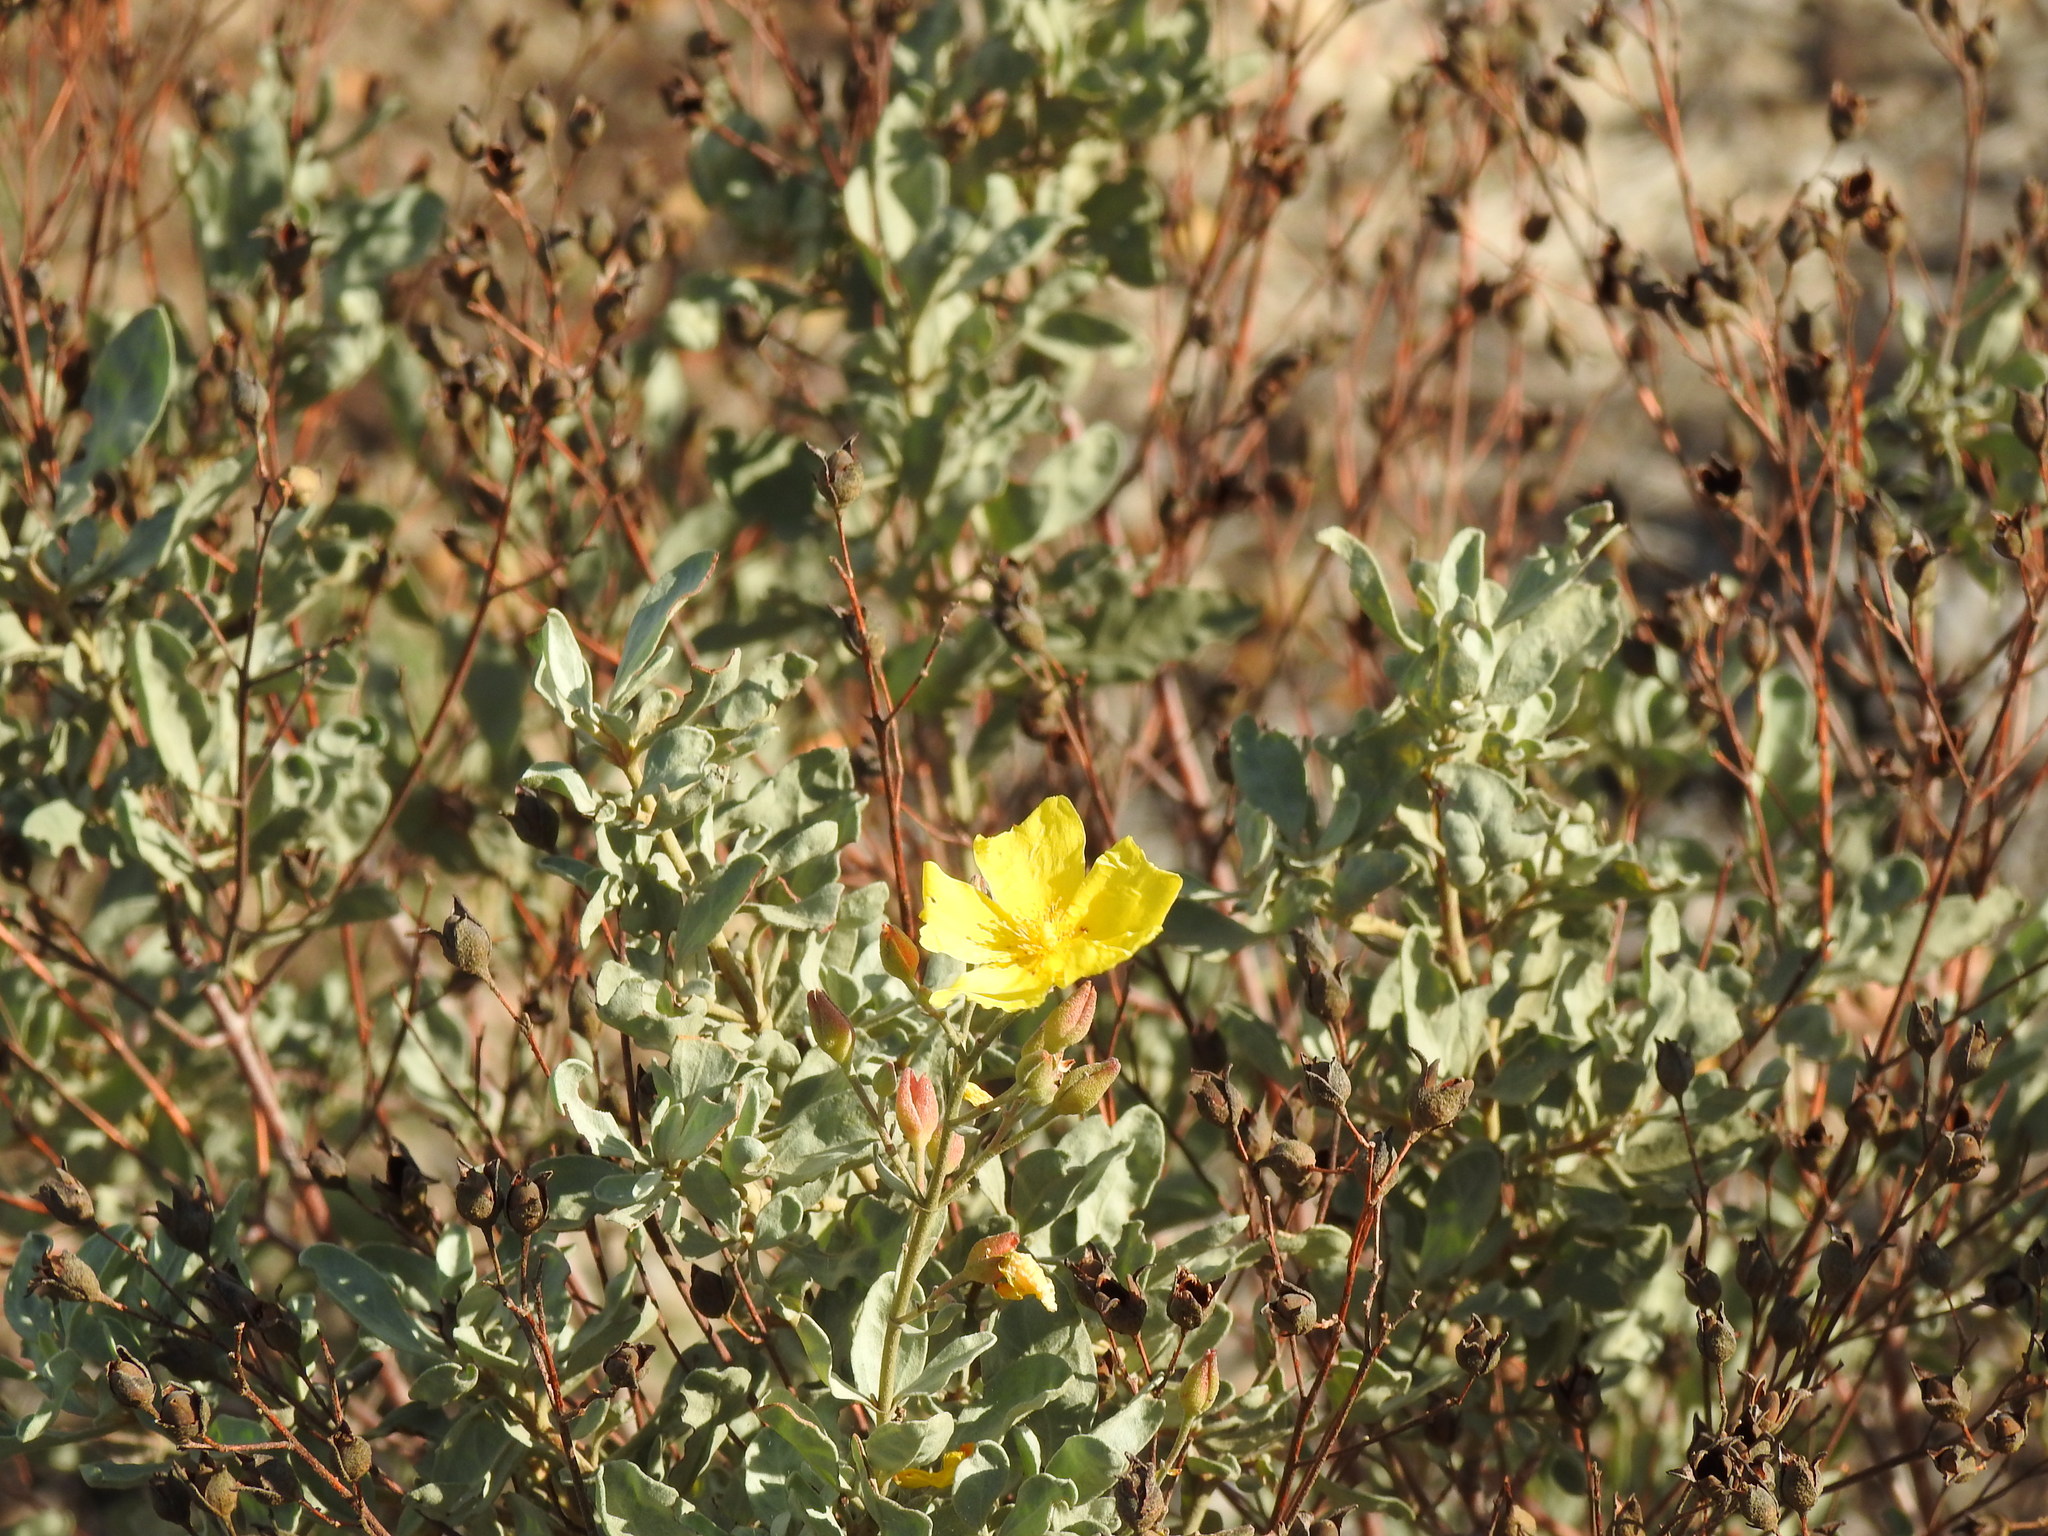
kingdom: Plantae
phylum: Tracheophyta
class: Magnoliopsida
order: Malvales
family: Cistaceae
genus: Halimium
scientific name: Halimium halimifolium
